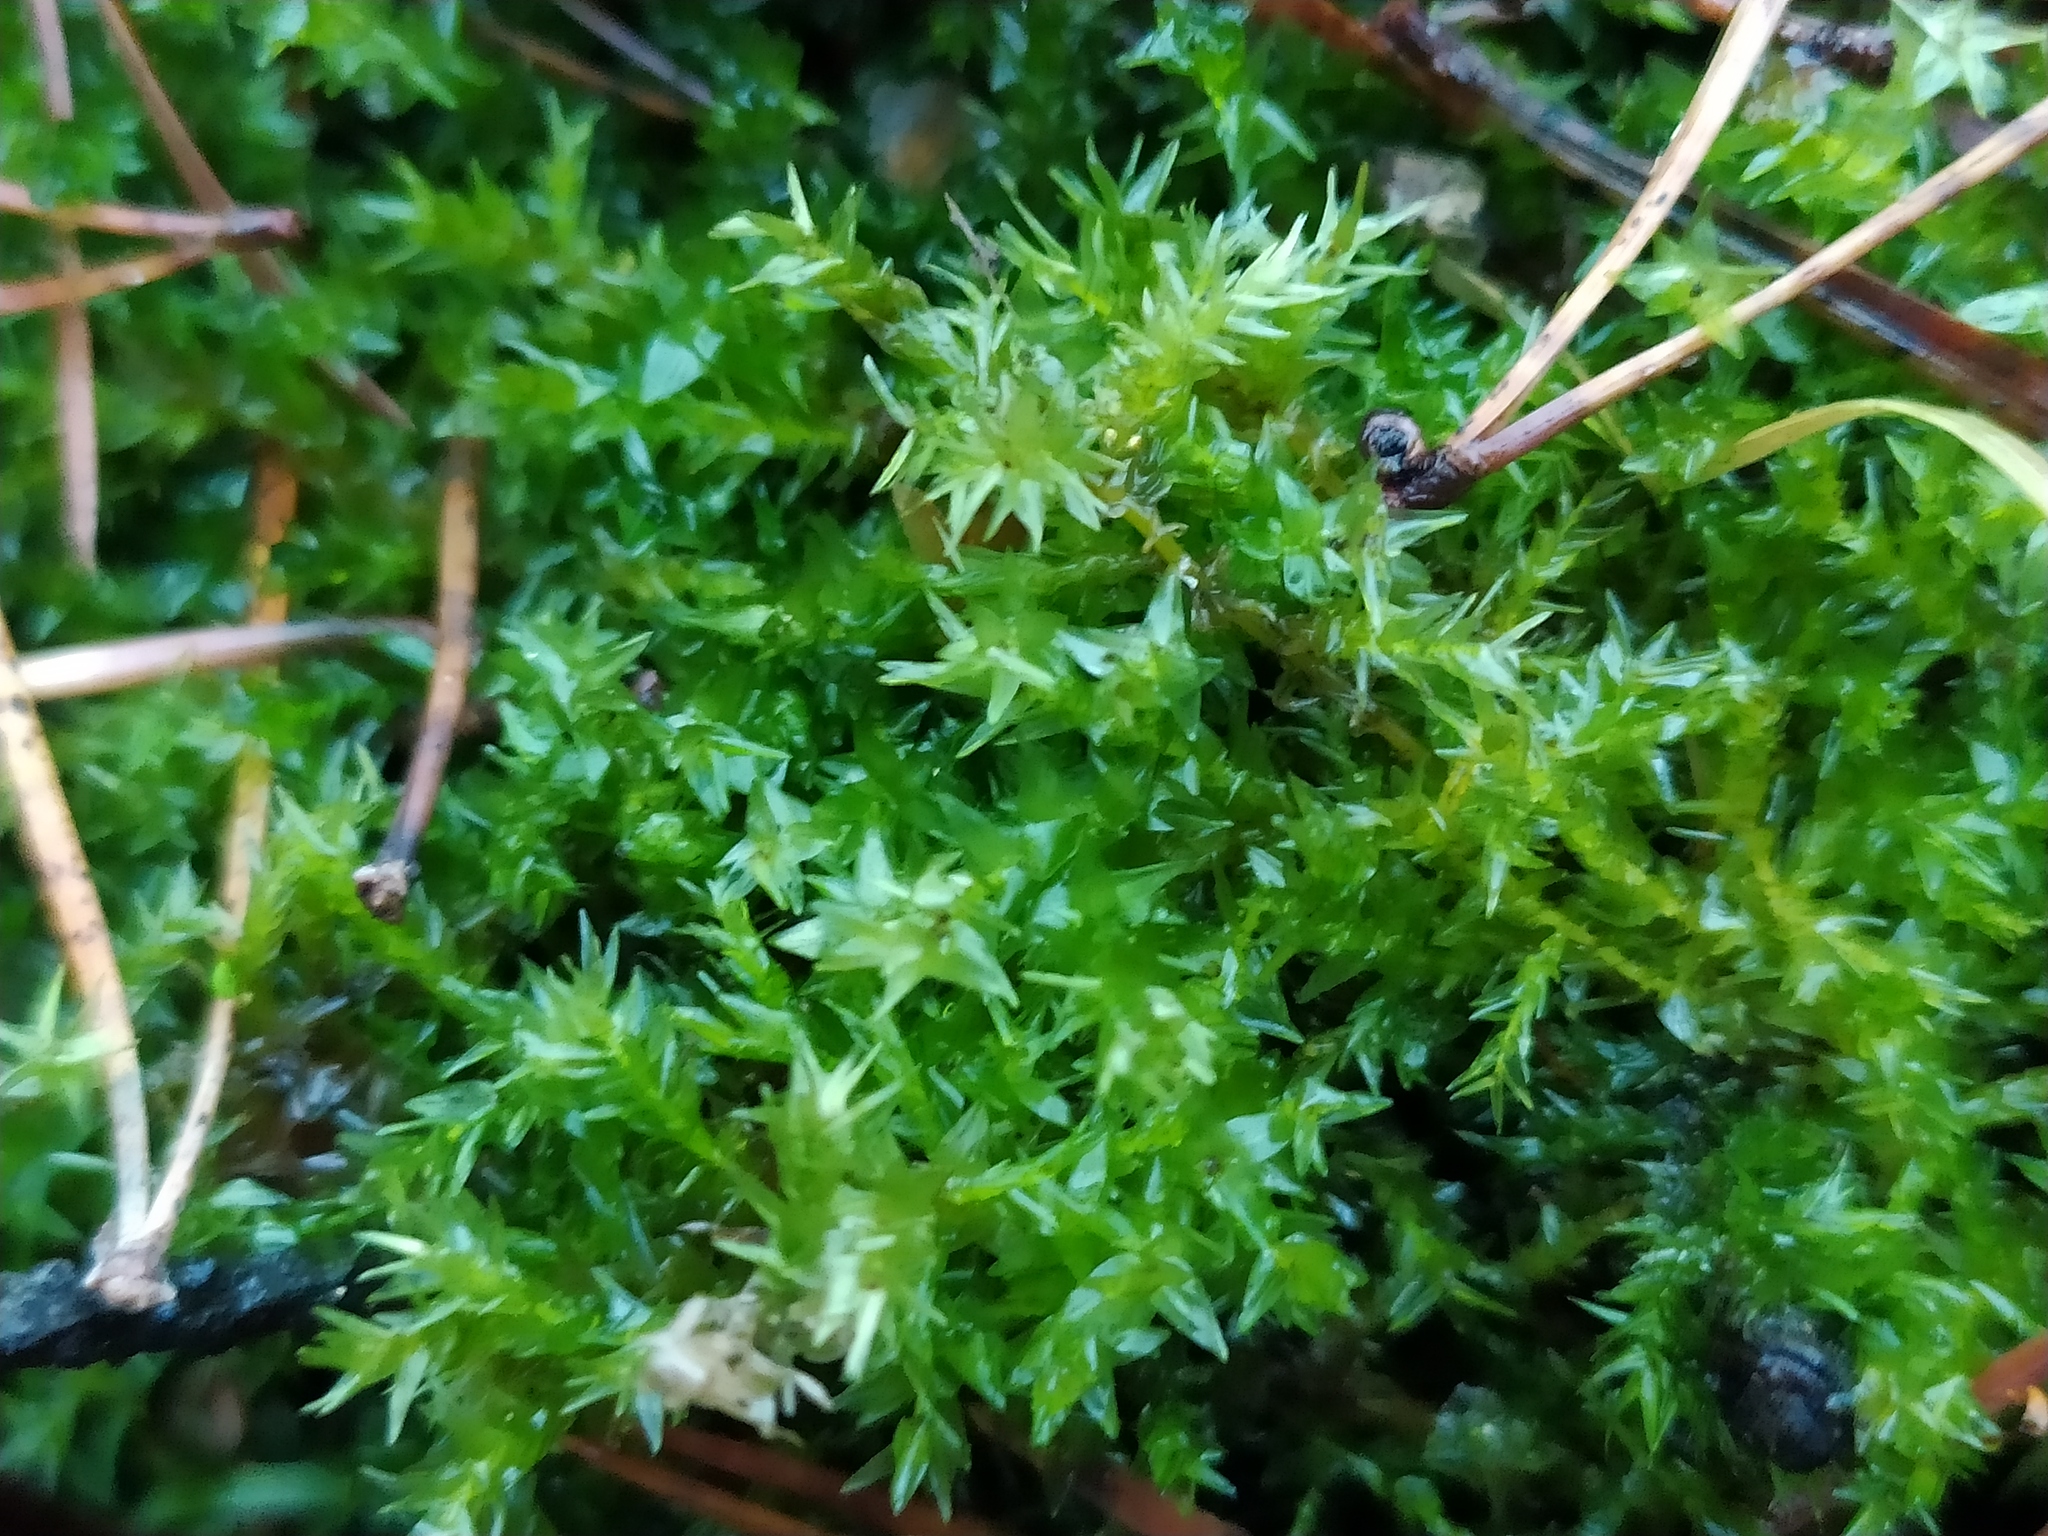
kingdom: Plantae
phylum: Bryophyta
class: Bryopsida
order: Hypnales
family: Calliergonaceae
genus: Calliergon
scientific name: Calliergon cordifolium
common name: Heart-leaved spear moss
